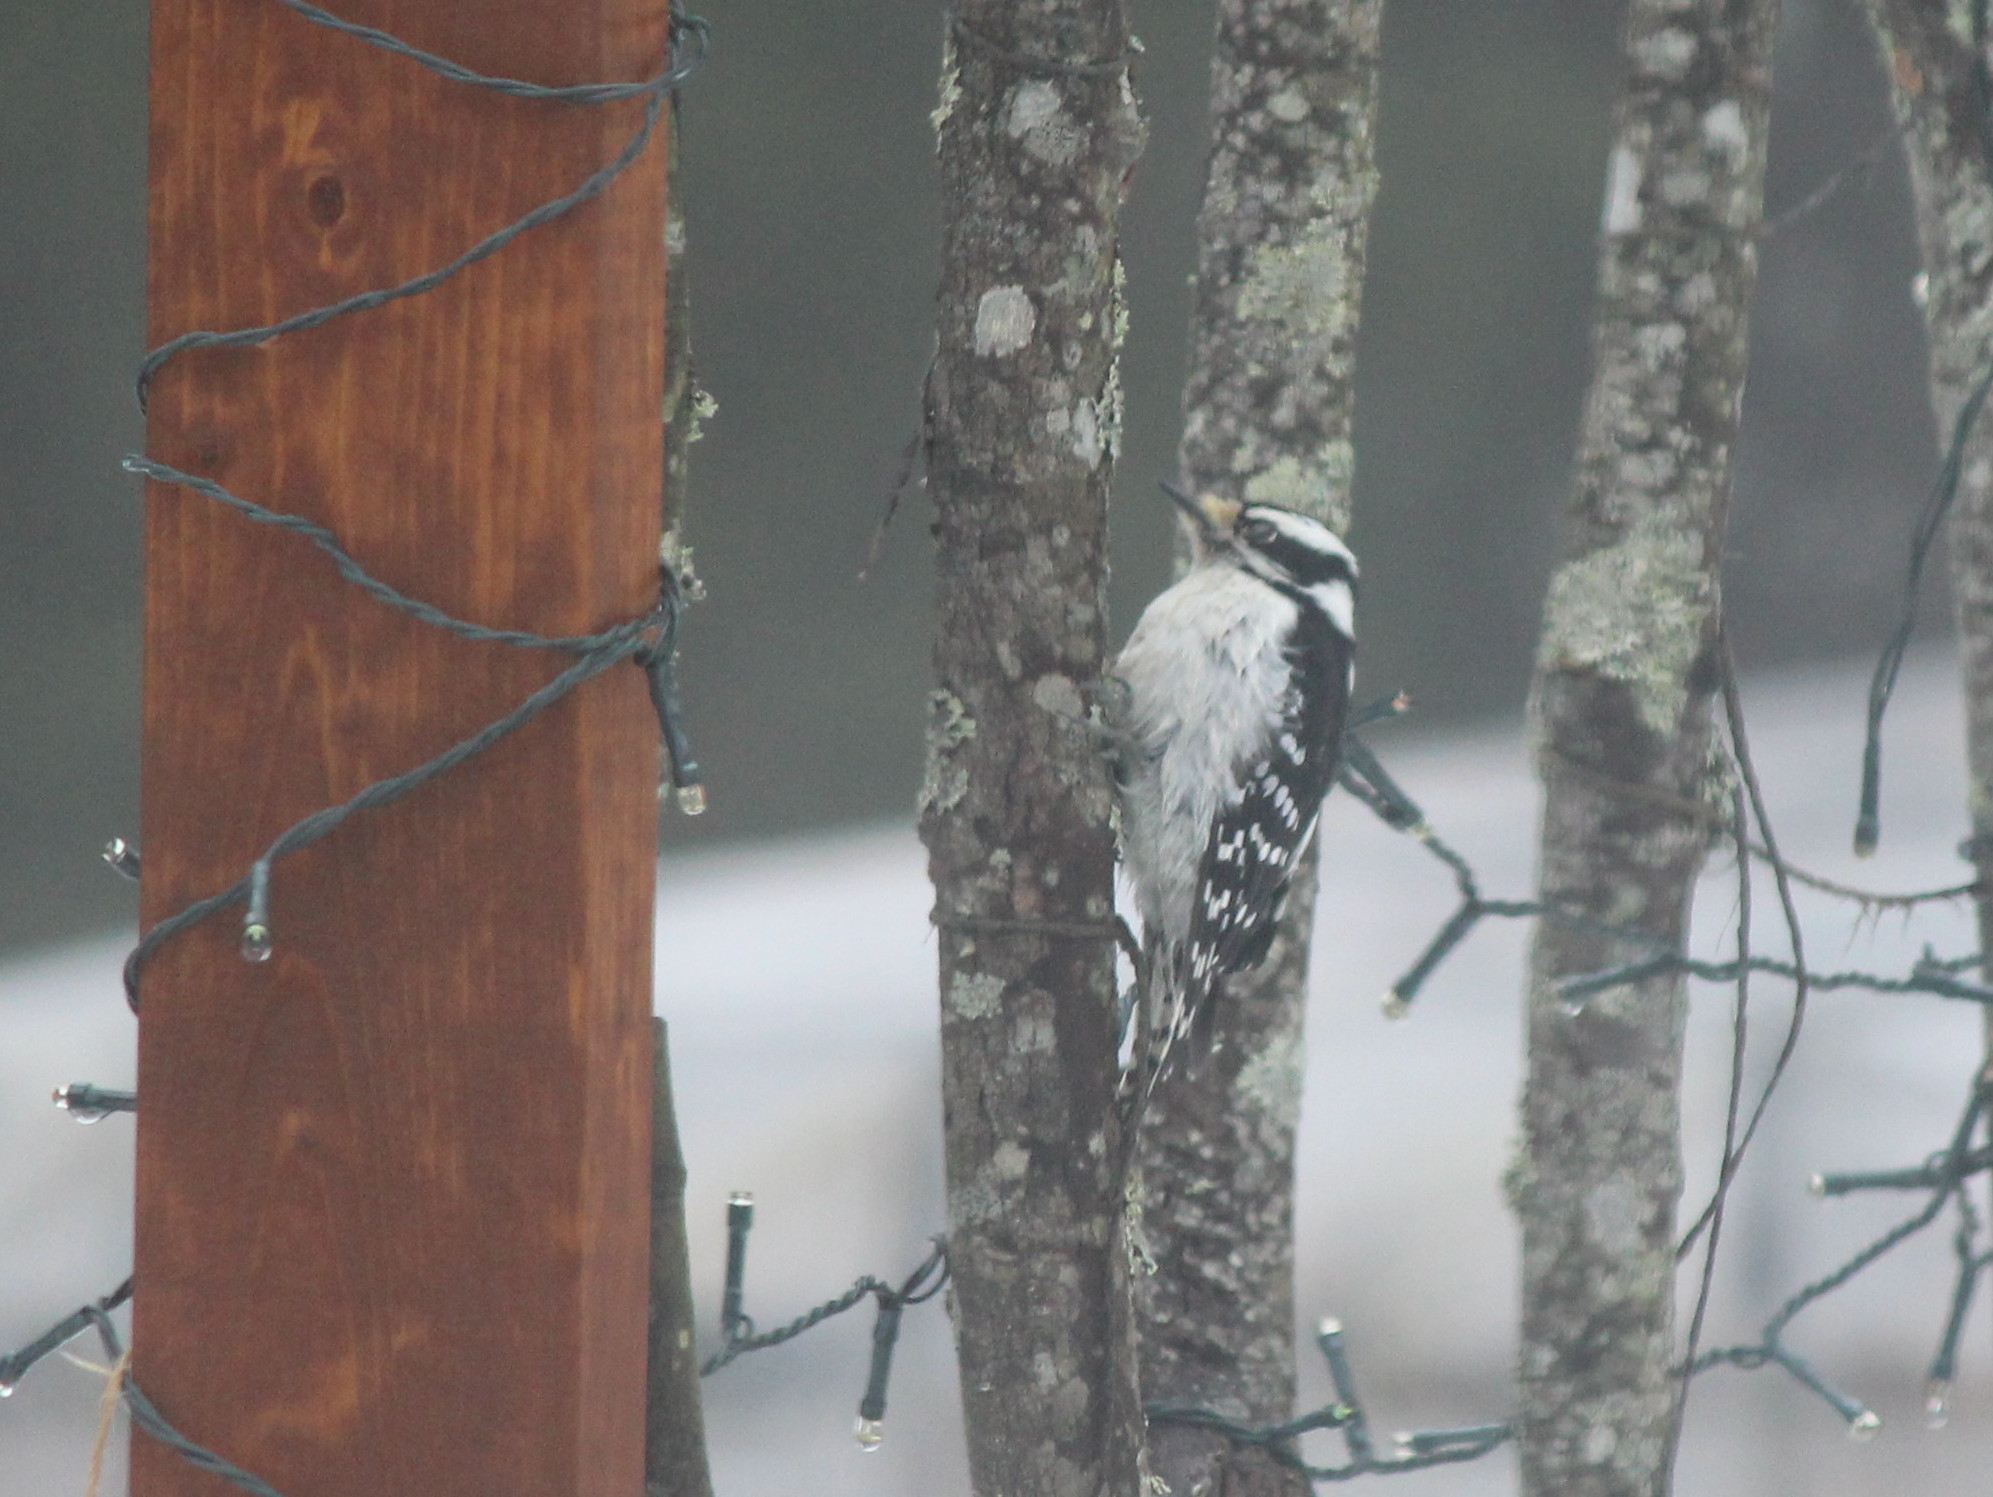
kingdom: Animalia
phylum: Chordata
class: Aves
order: Piciformes
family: Picidae
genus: Dryobates
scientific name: Dryobates pubescens
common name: Downy woodpecker
